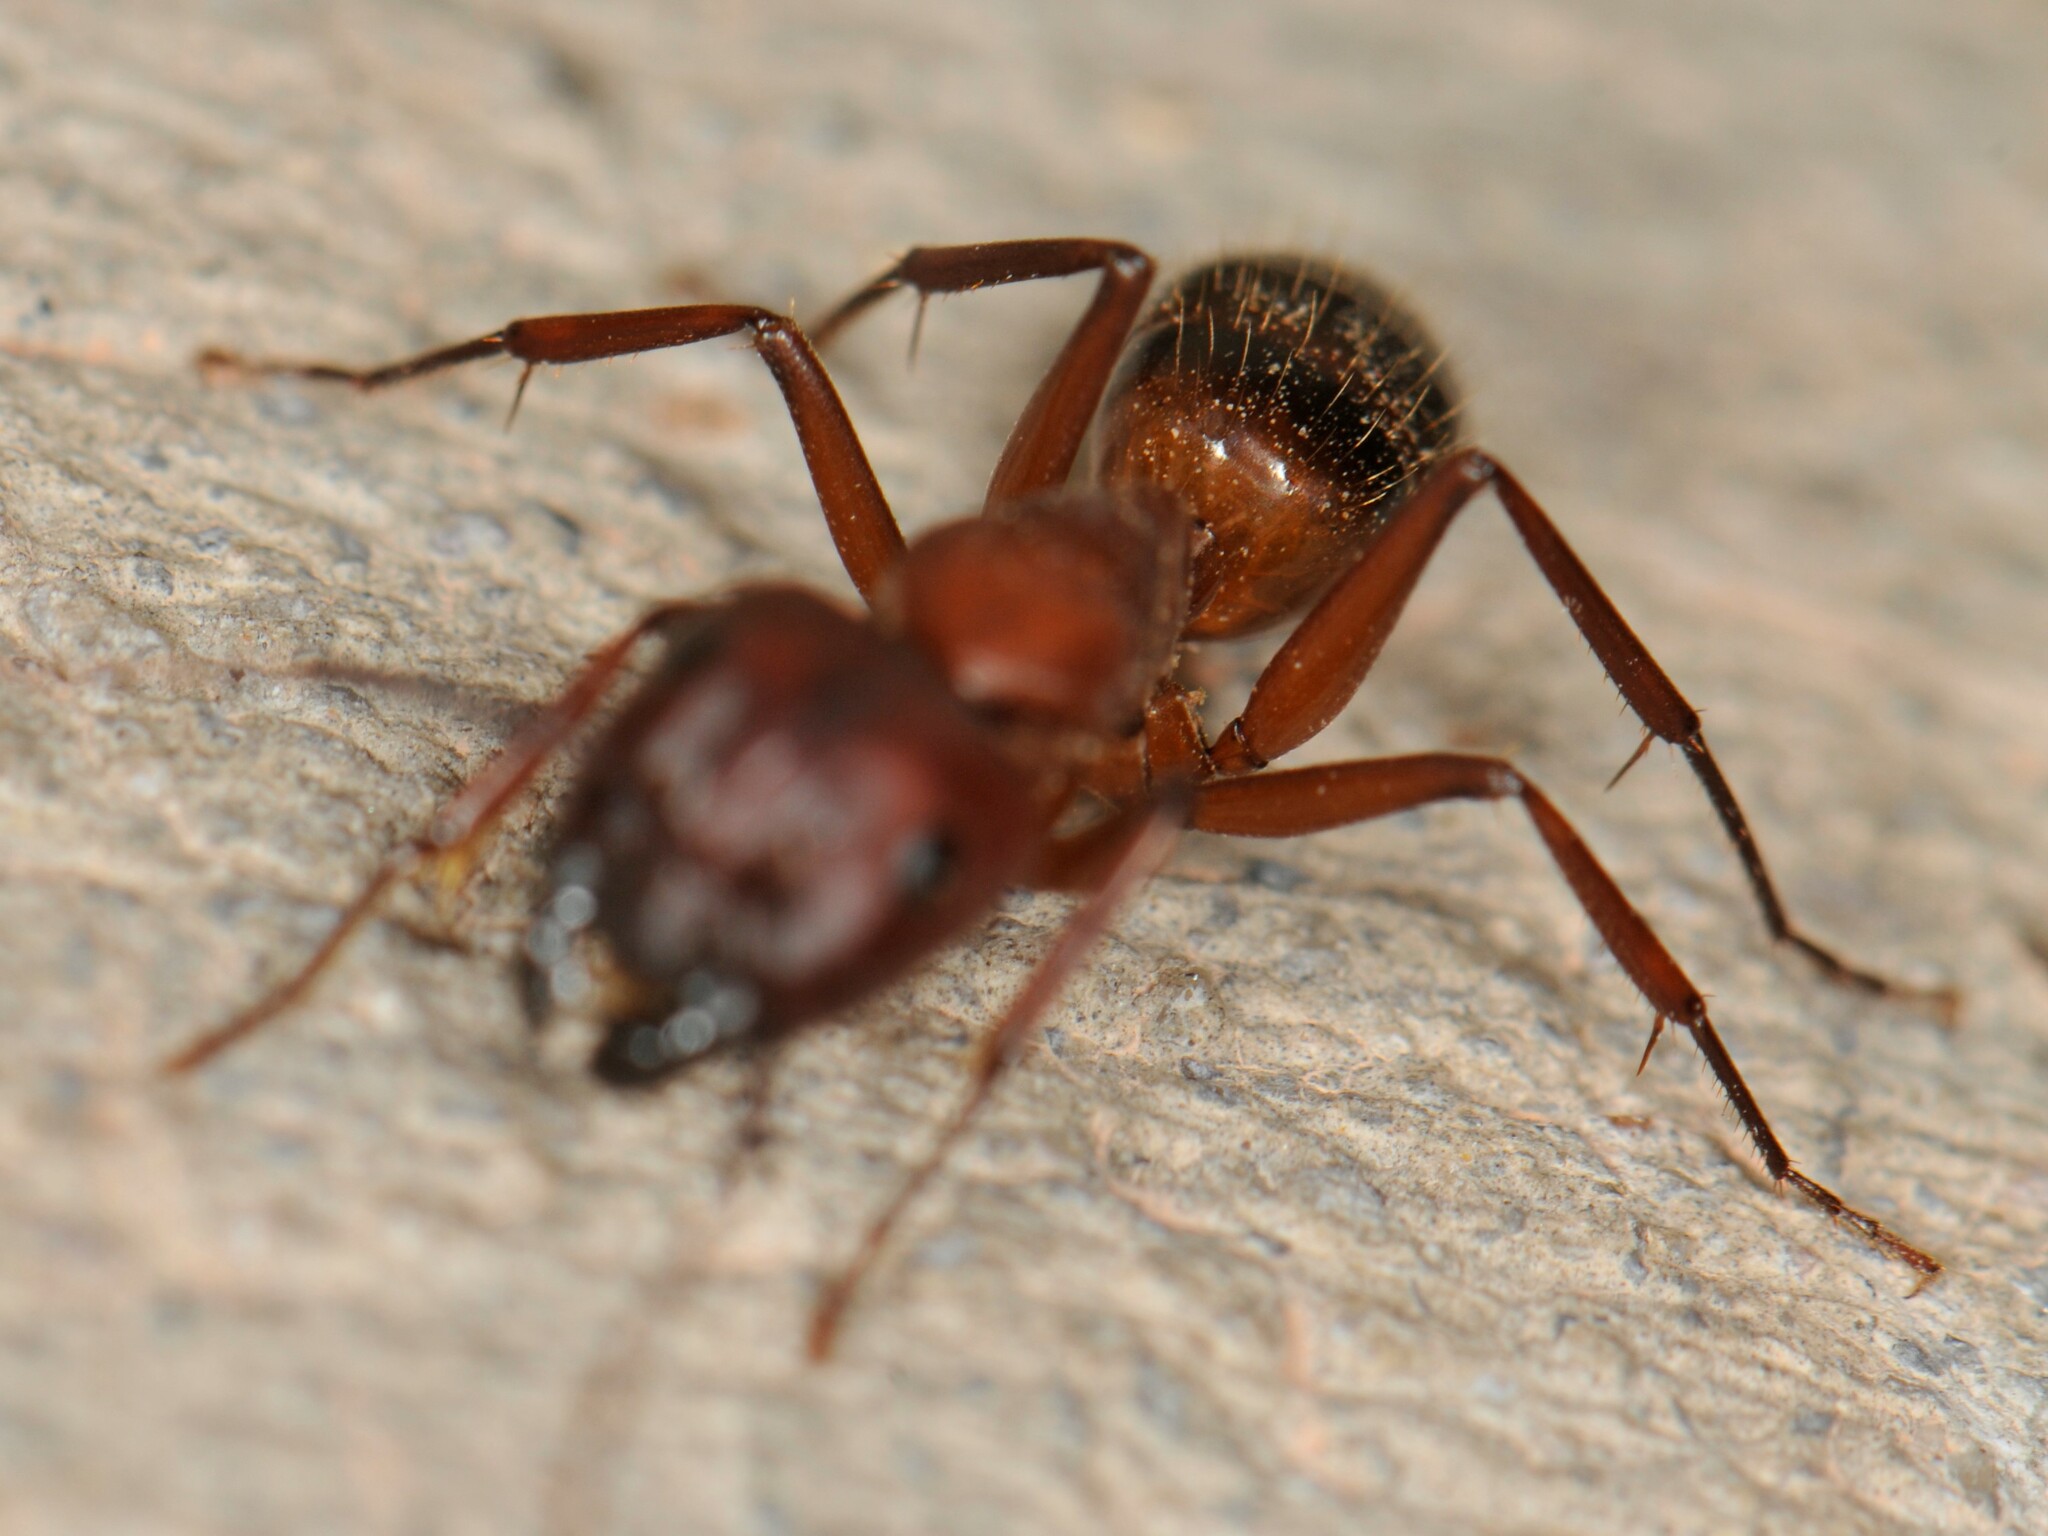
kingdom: Animalia
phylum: Arthropoda
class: Insecta
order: Hymenoptera
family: Formicidae
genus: Camponotus
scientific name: Camponotus
